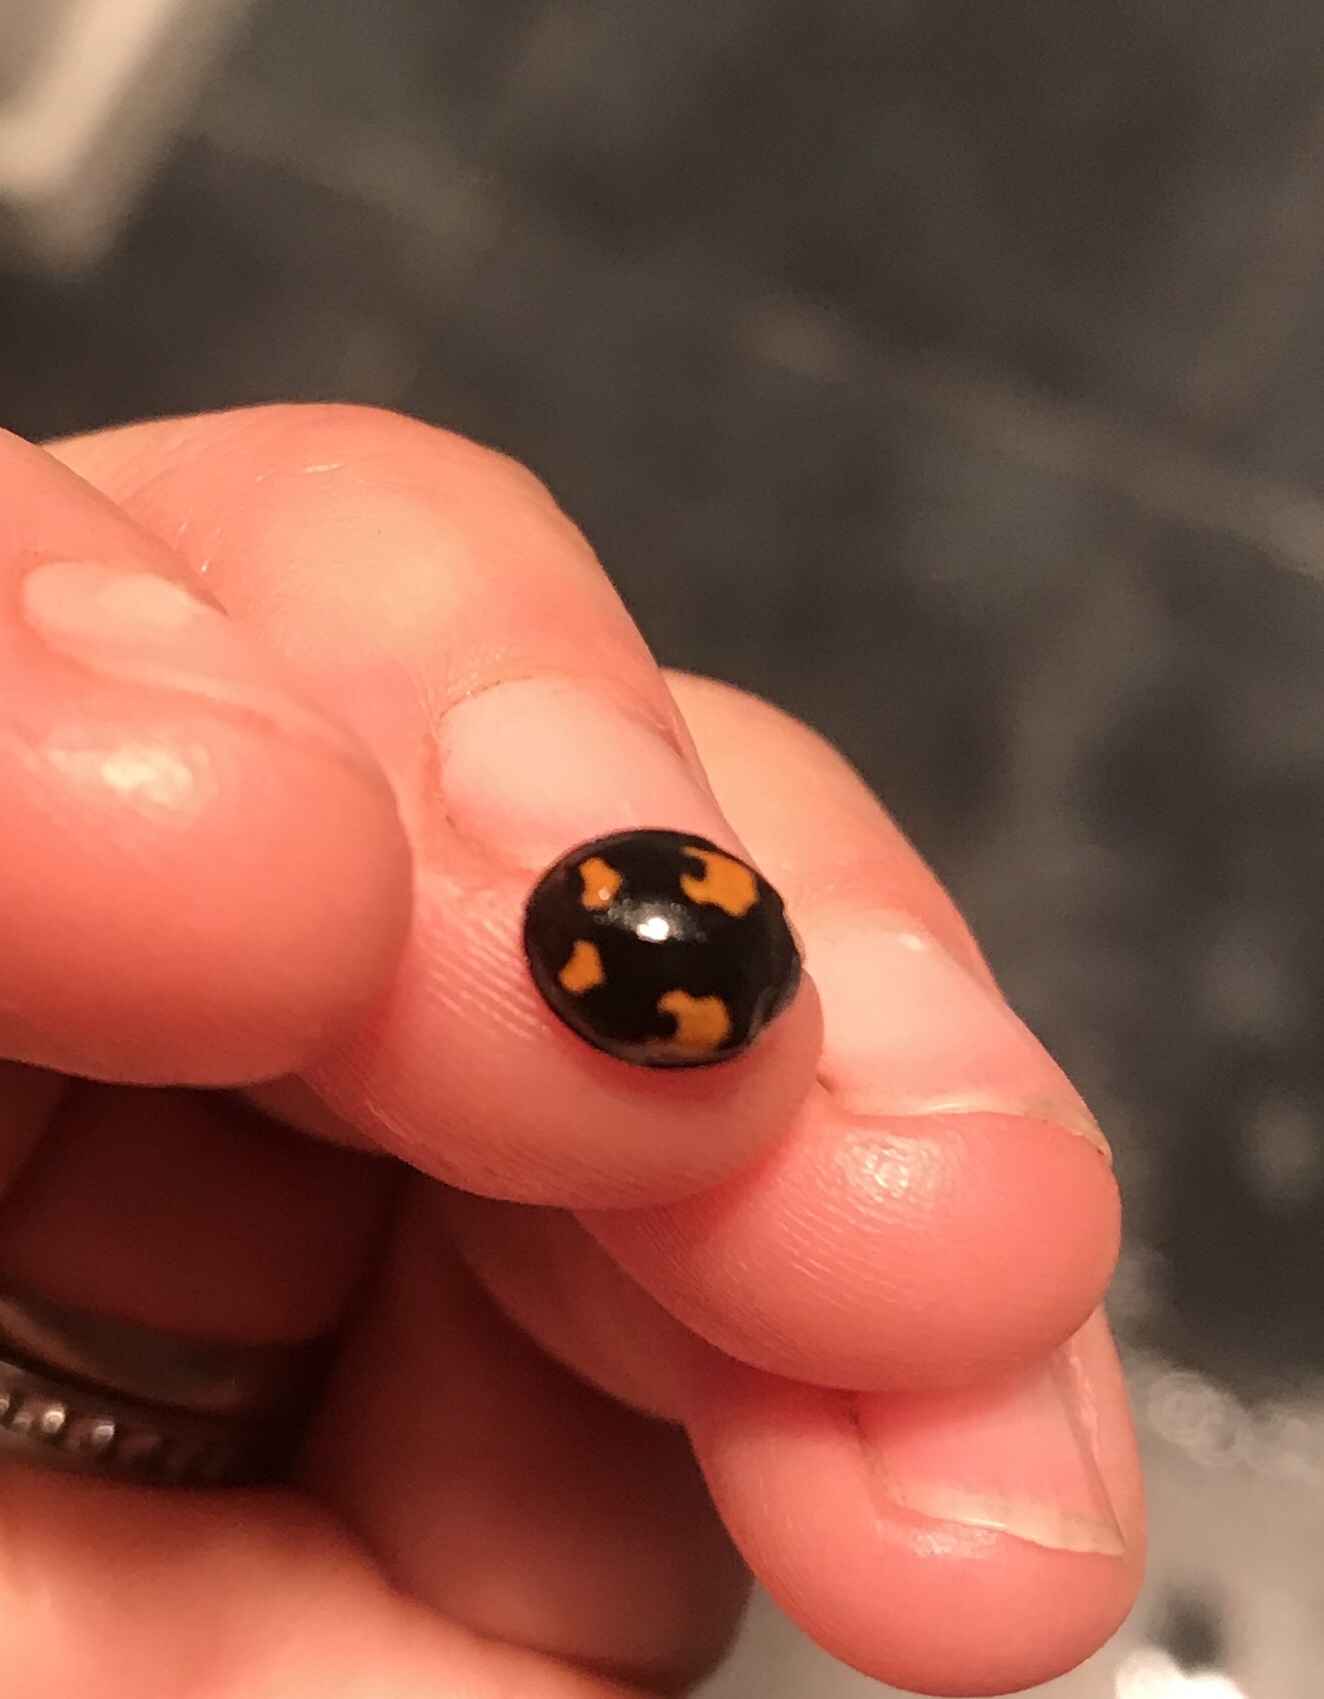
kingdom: Animalia
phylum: Arthropoda
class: Insecta
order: Coleoptera
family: Coccinellidae
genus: Harmonia
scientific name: Harmonia axyridis
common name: Harlequin ladybird
